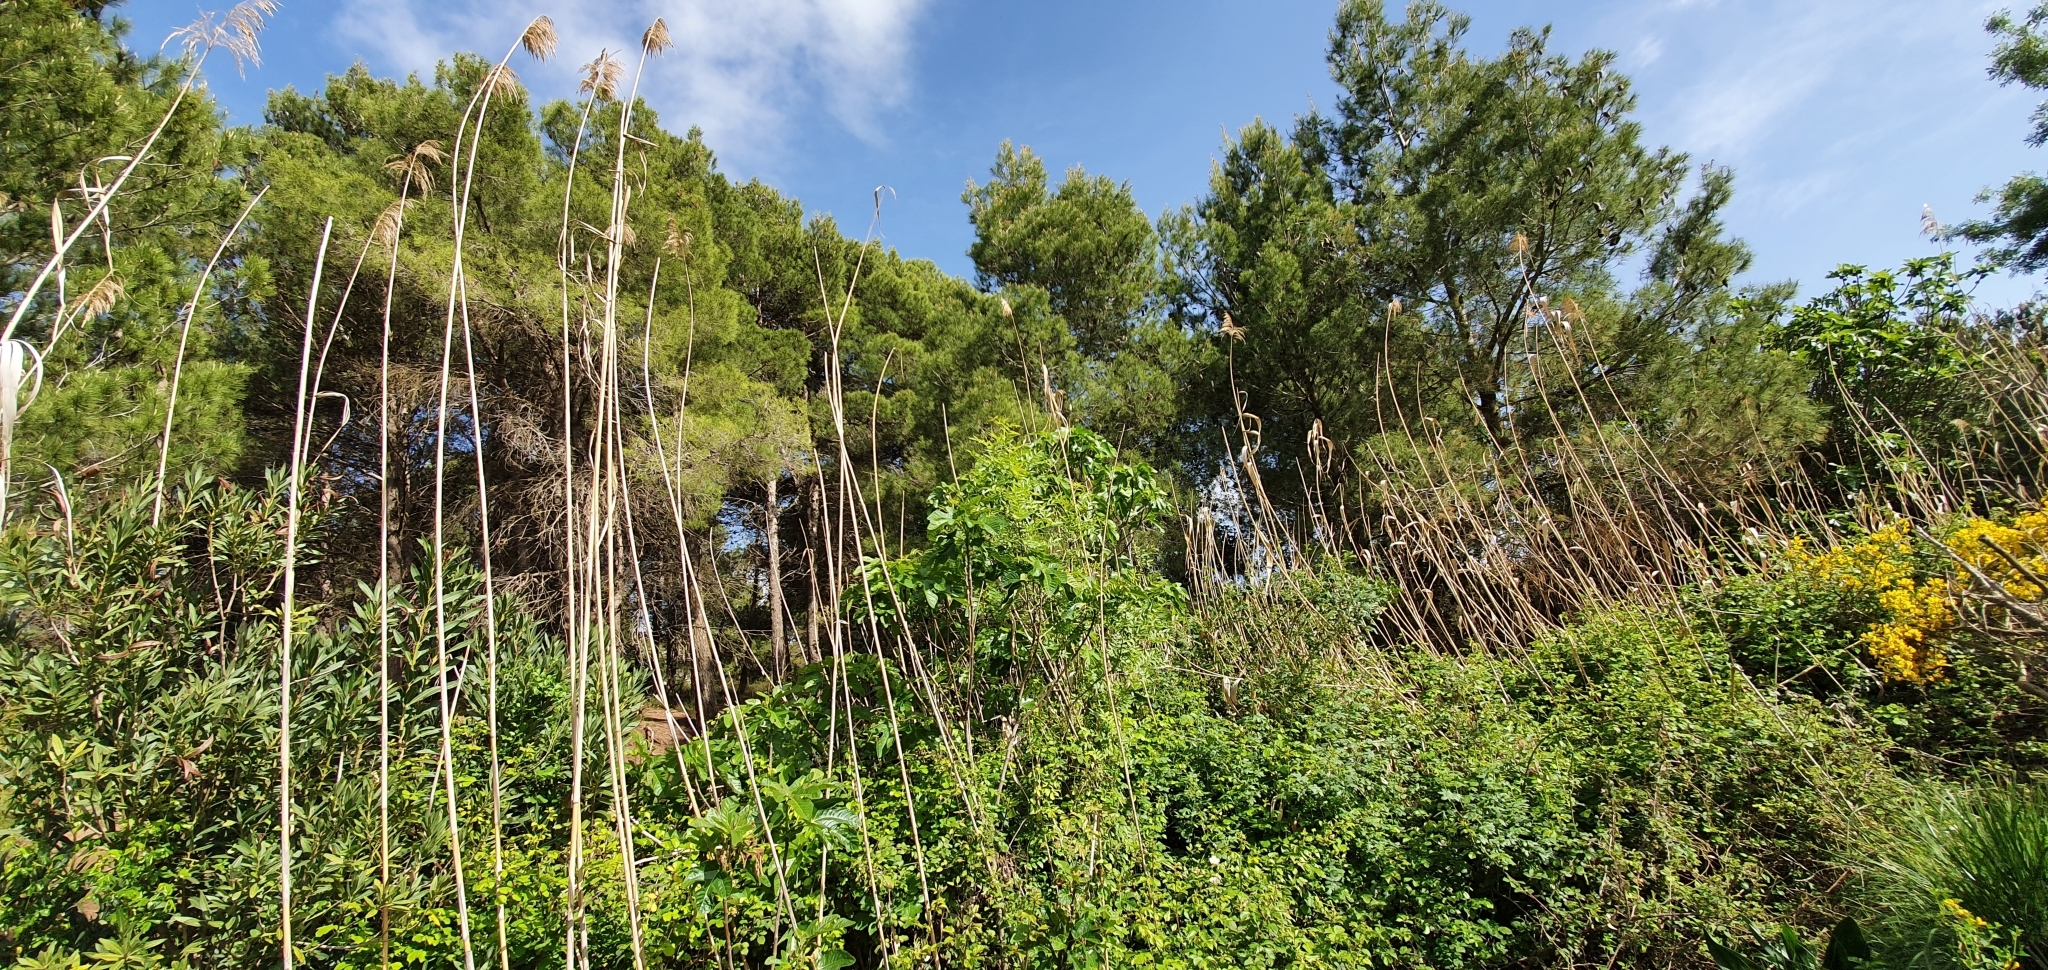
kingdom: Plantae
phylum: Tracheophyta
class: Liliopsida
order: Poales
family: Poaceae
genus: Phragmites
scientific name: Phragmites australis
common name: Common reed
